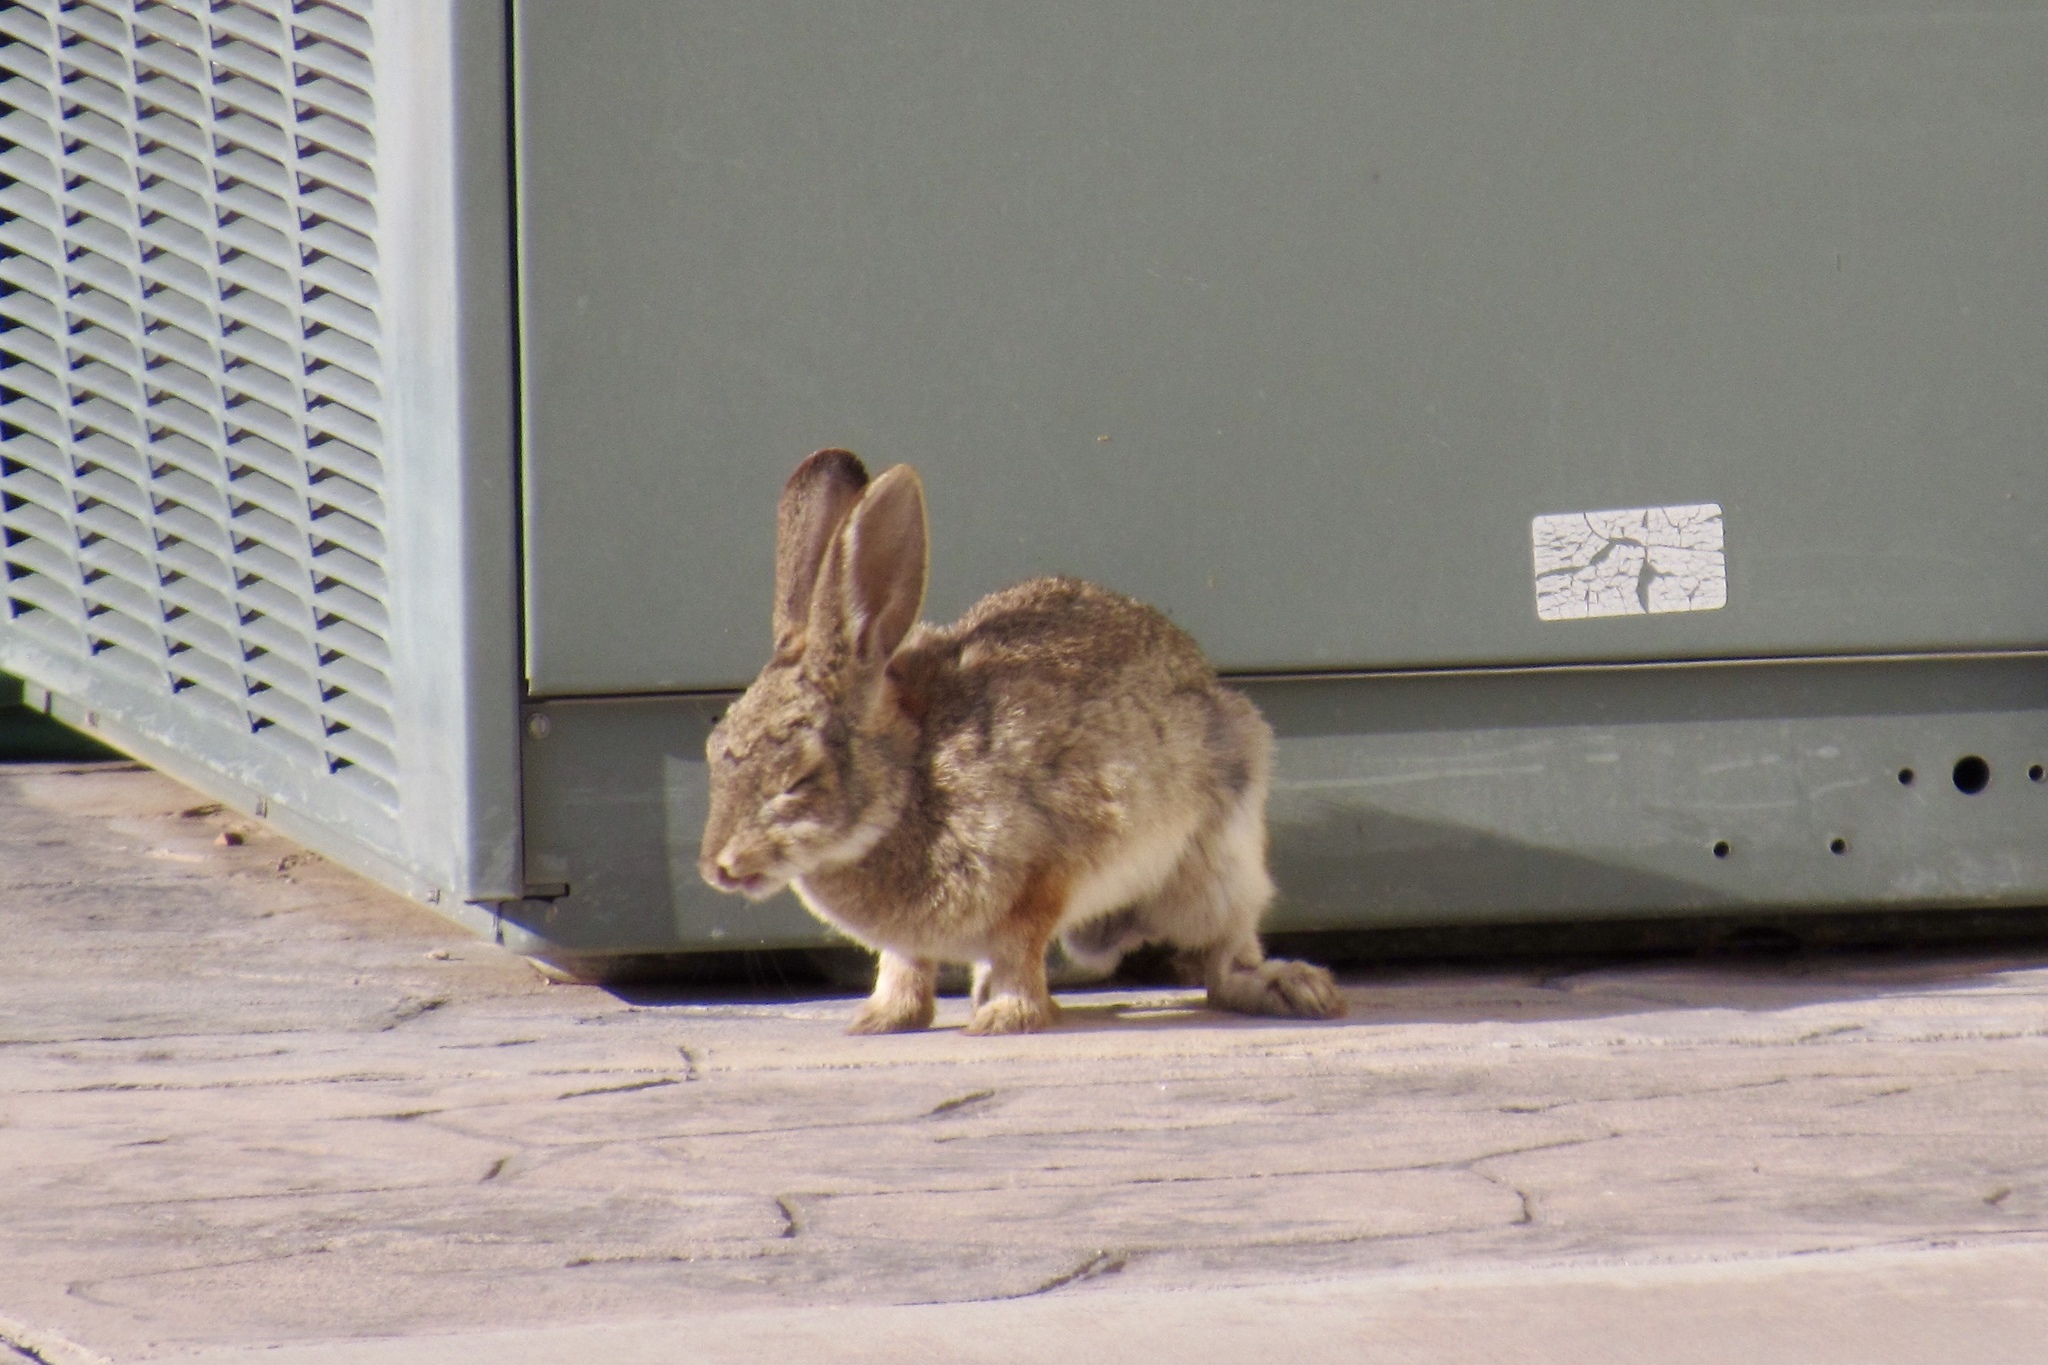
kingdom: Animalia
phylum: Chordata
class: Mammalia
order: Lagomorpha
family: Leporidae
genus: Sylvilagus
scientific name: Sylvilagus audubonii
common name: Desert cottontail
